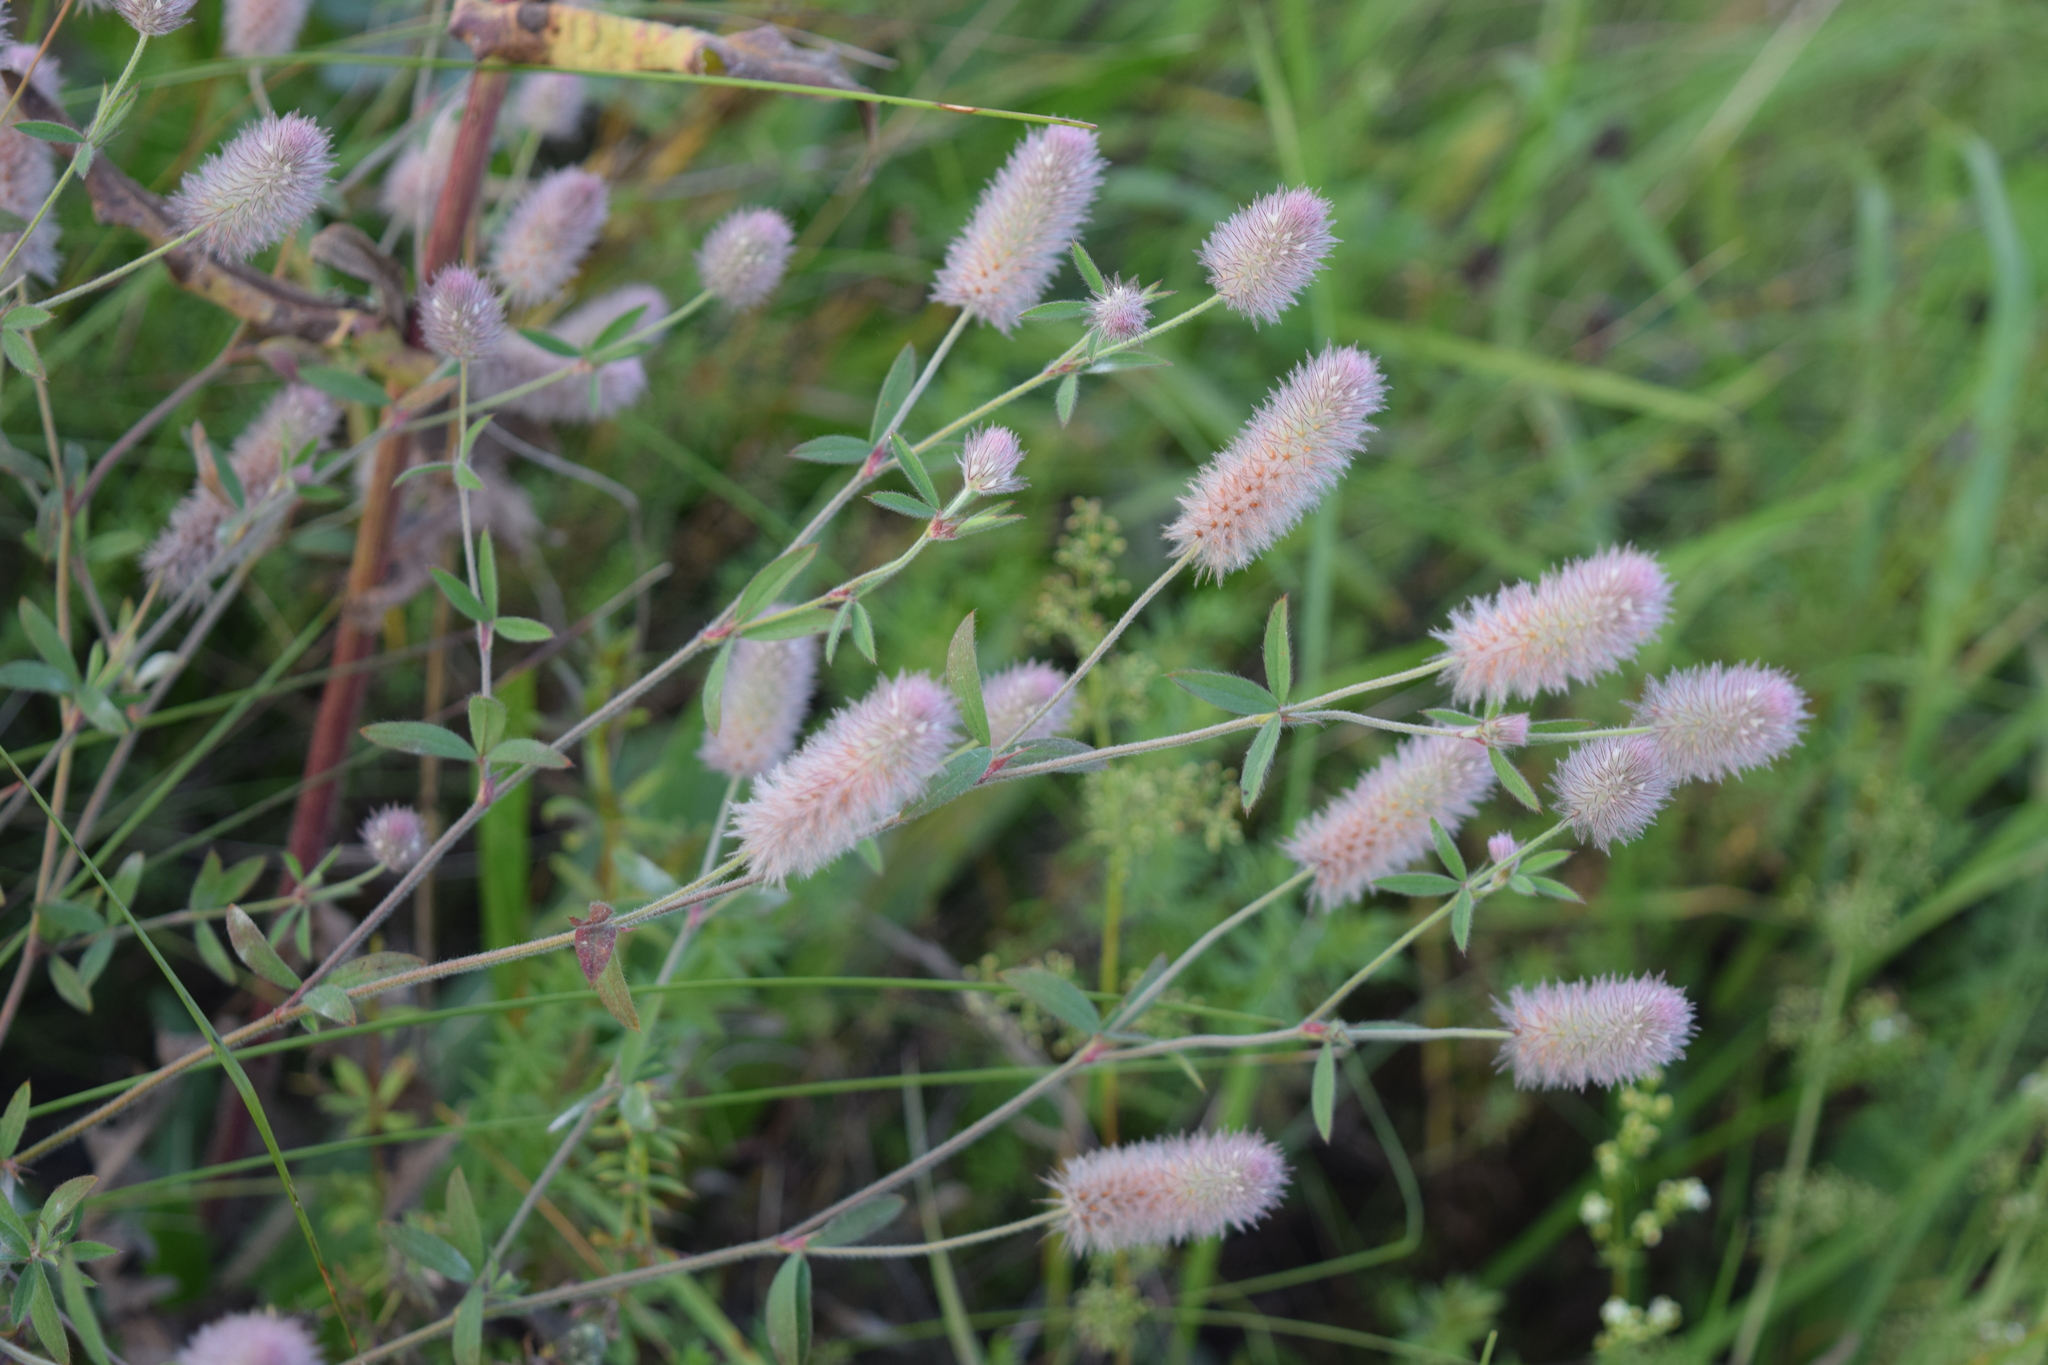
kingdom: Plantae
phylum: Tracheophyta
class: Magnoliopsida
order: Fabales
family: Fabaceae
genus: Trifolium
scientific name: Trifolium arvense
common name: Hare's-foot clover
